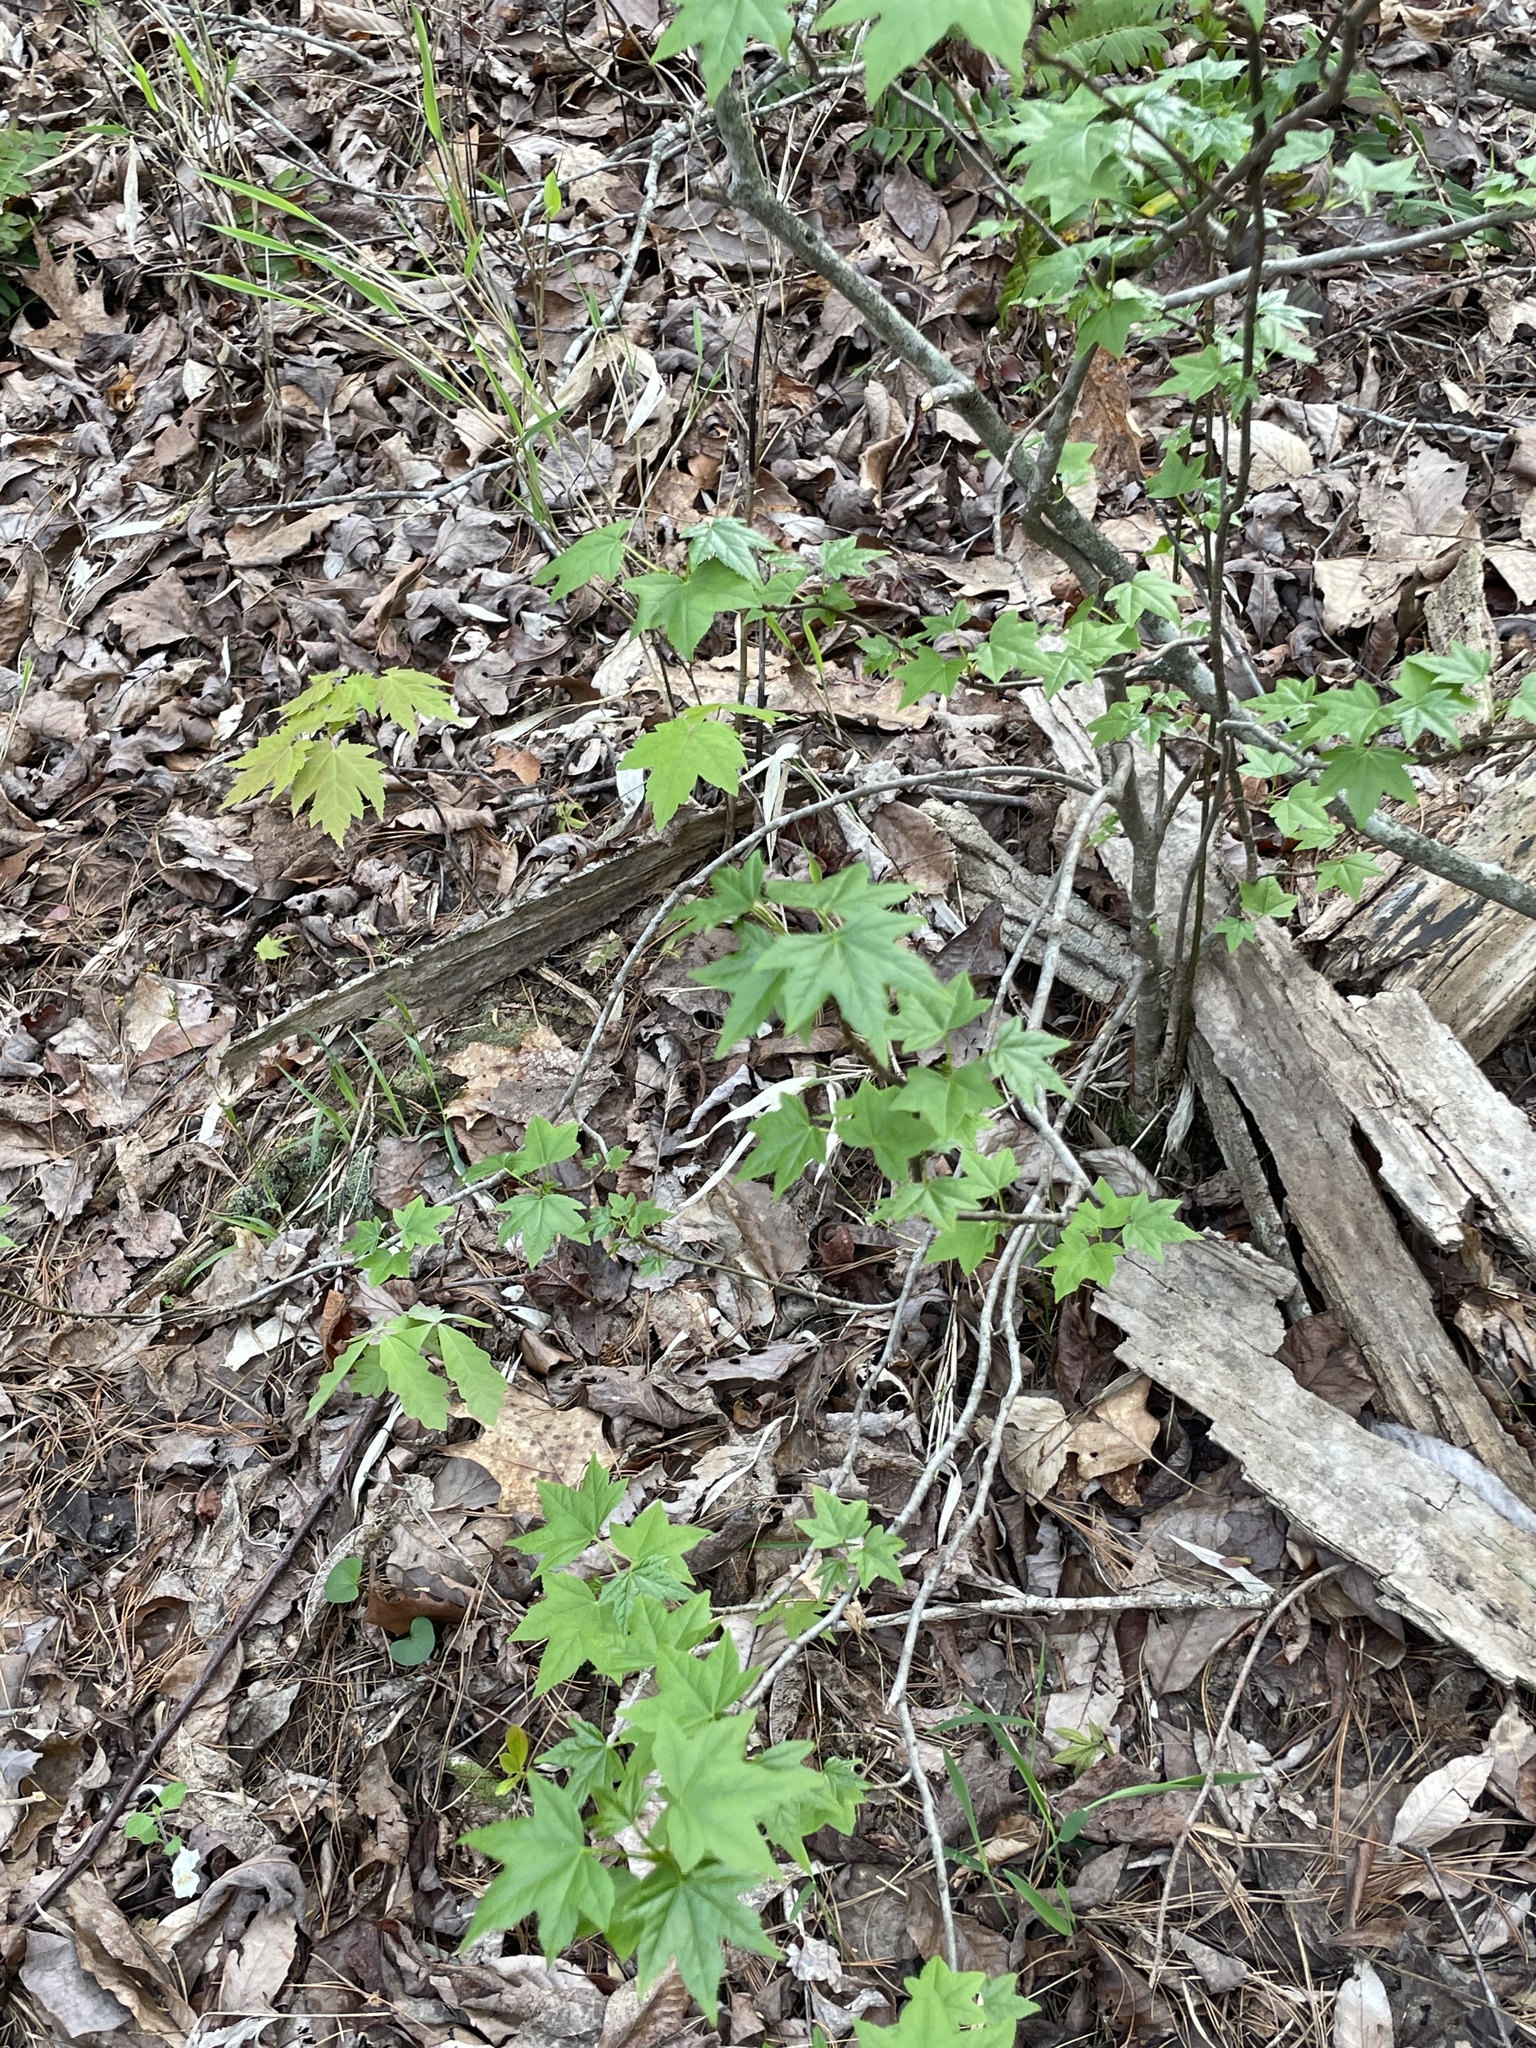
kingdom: Plantae
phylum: Tracheophyta
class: Magnoliopsida
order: Saxifragales
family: Altingiaceae
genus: Liquidambar
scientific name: Liquidambar styraciflua
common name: Sweet gum
